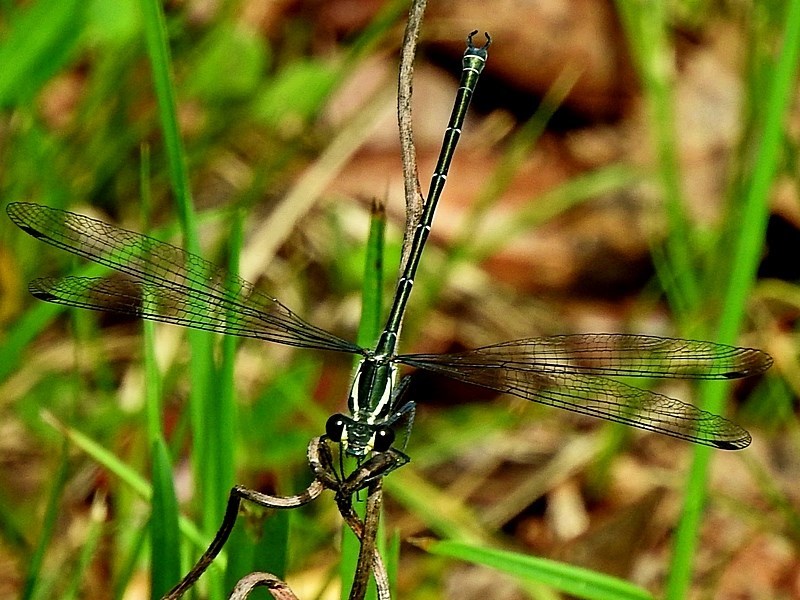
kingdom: Animalia
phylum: Arthropoda
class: Insecta
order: Odonata
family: Argiolestidae
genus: Austroargiolestes
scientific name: Austroargiolestes icteromelas
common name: Common flatwing
